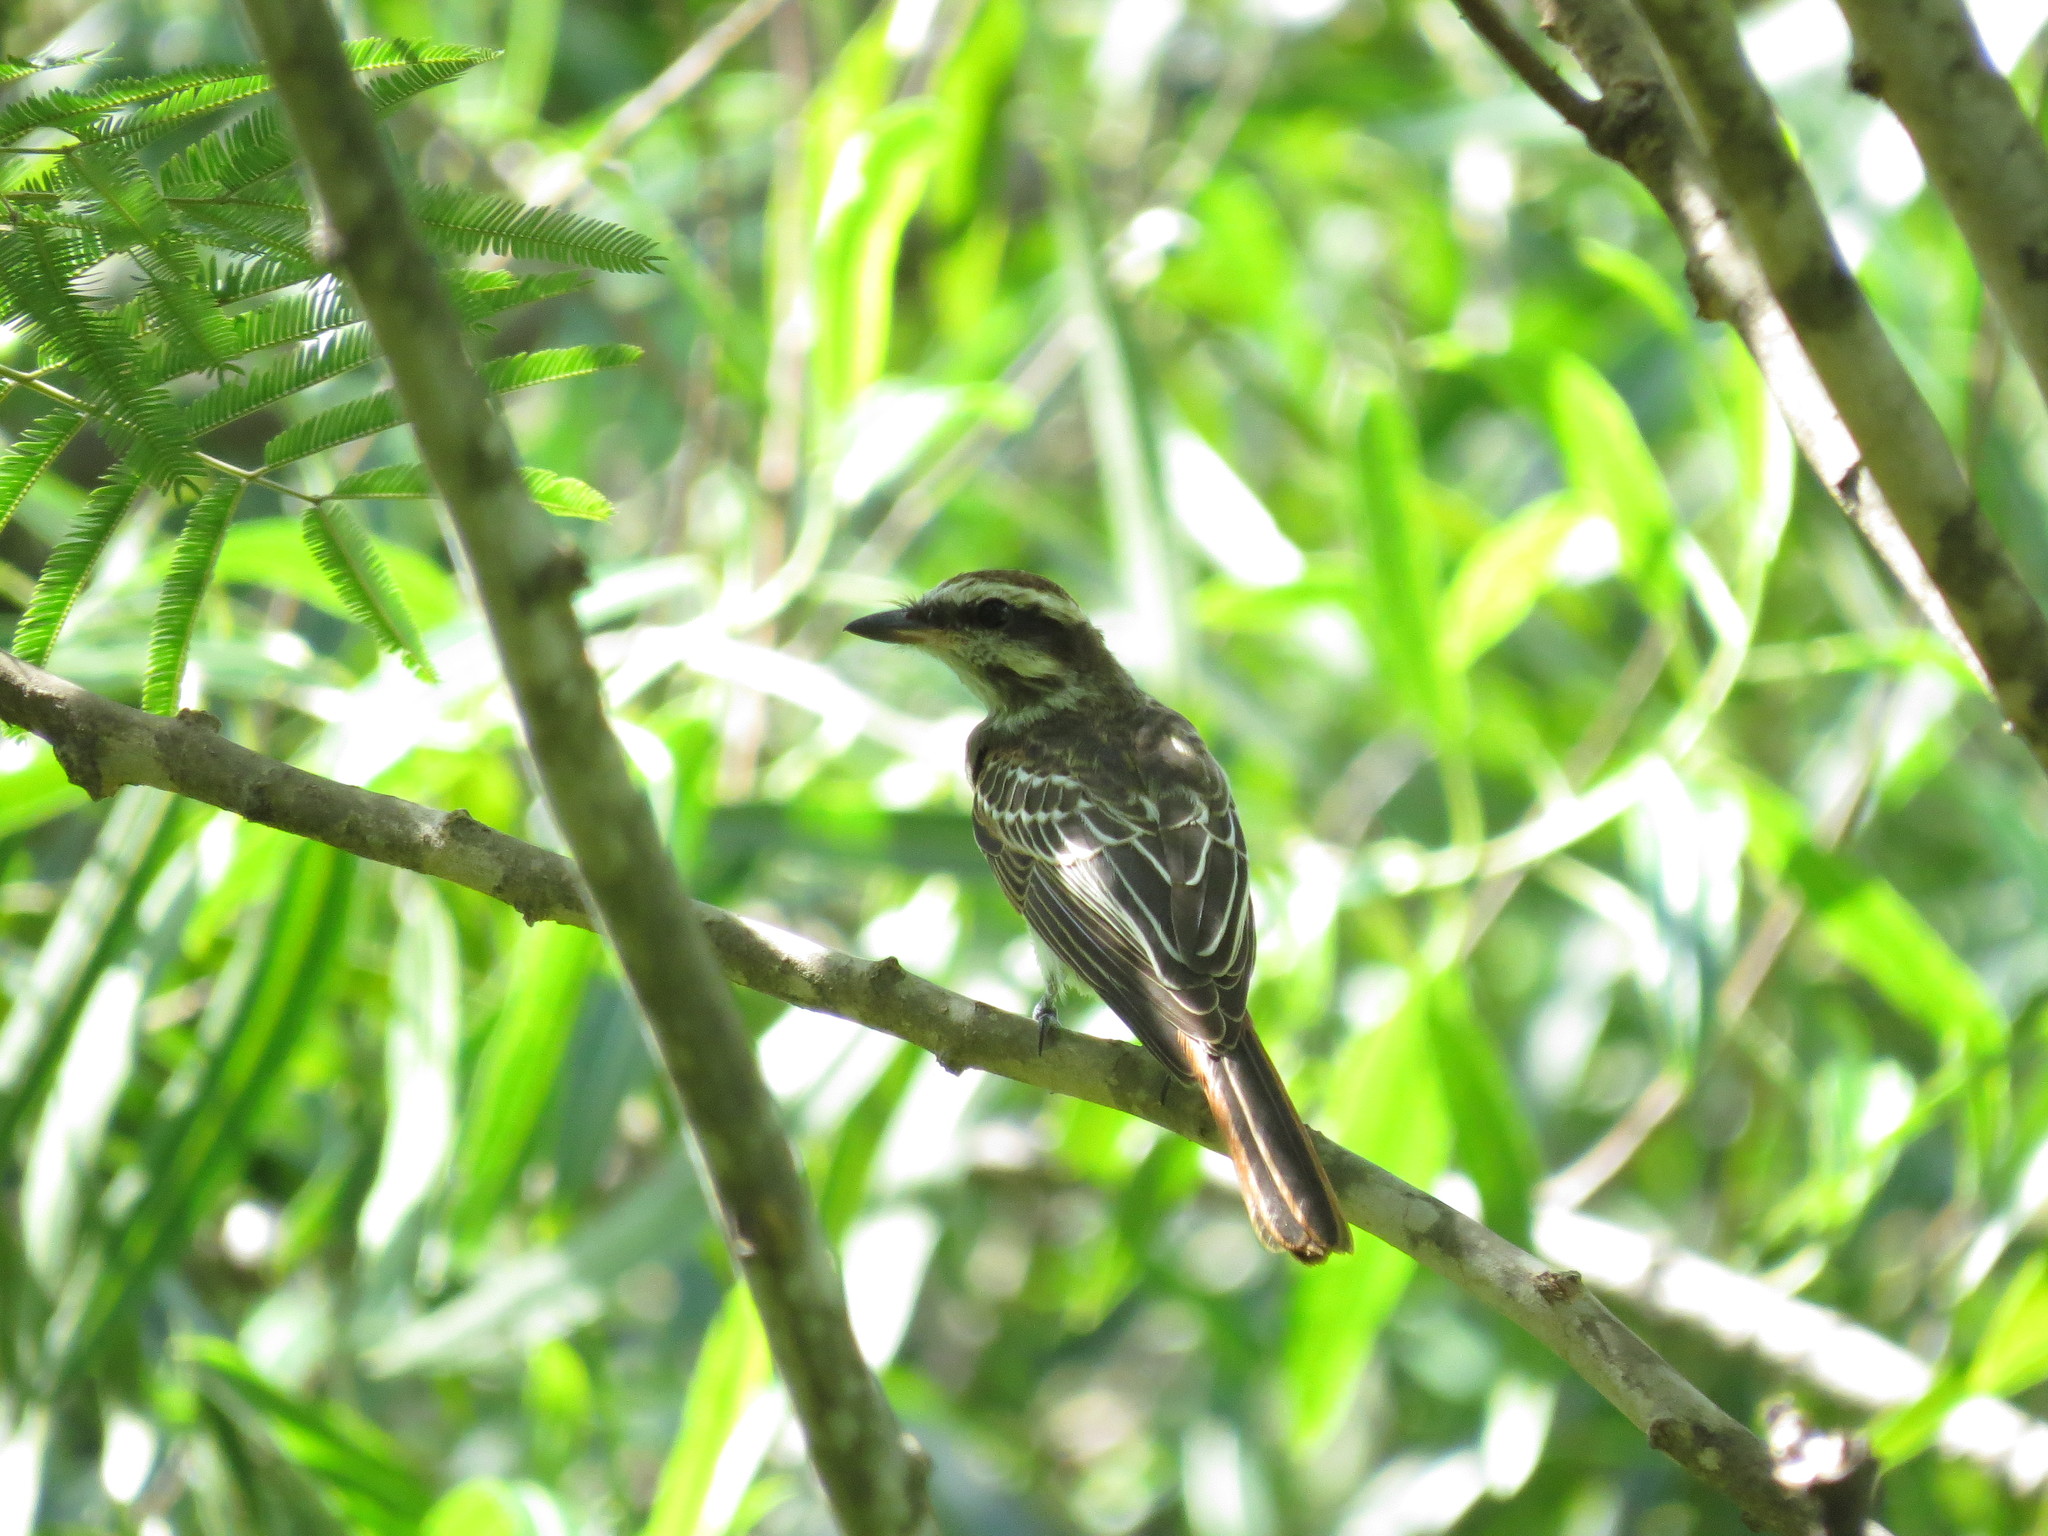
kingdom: Animalia
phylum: Chordata
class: Aves
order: Passeriformes
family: Tyrannidae
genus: Empidonomus
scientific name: Empidonomus varius
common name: Variegated flycatcher
